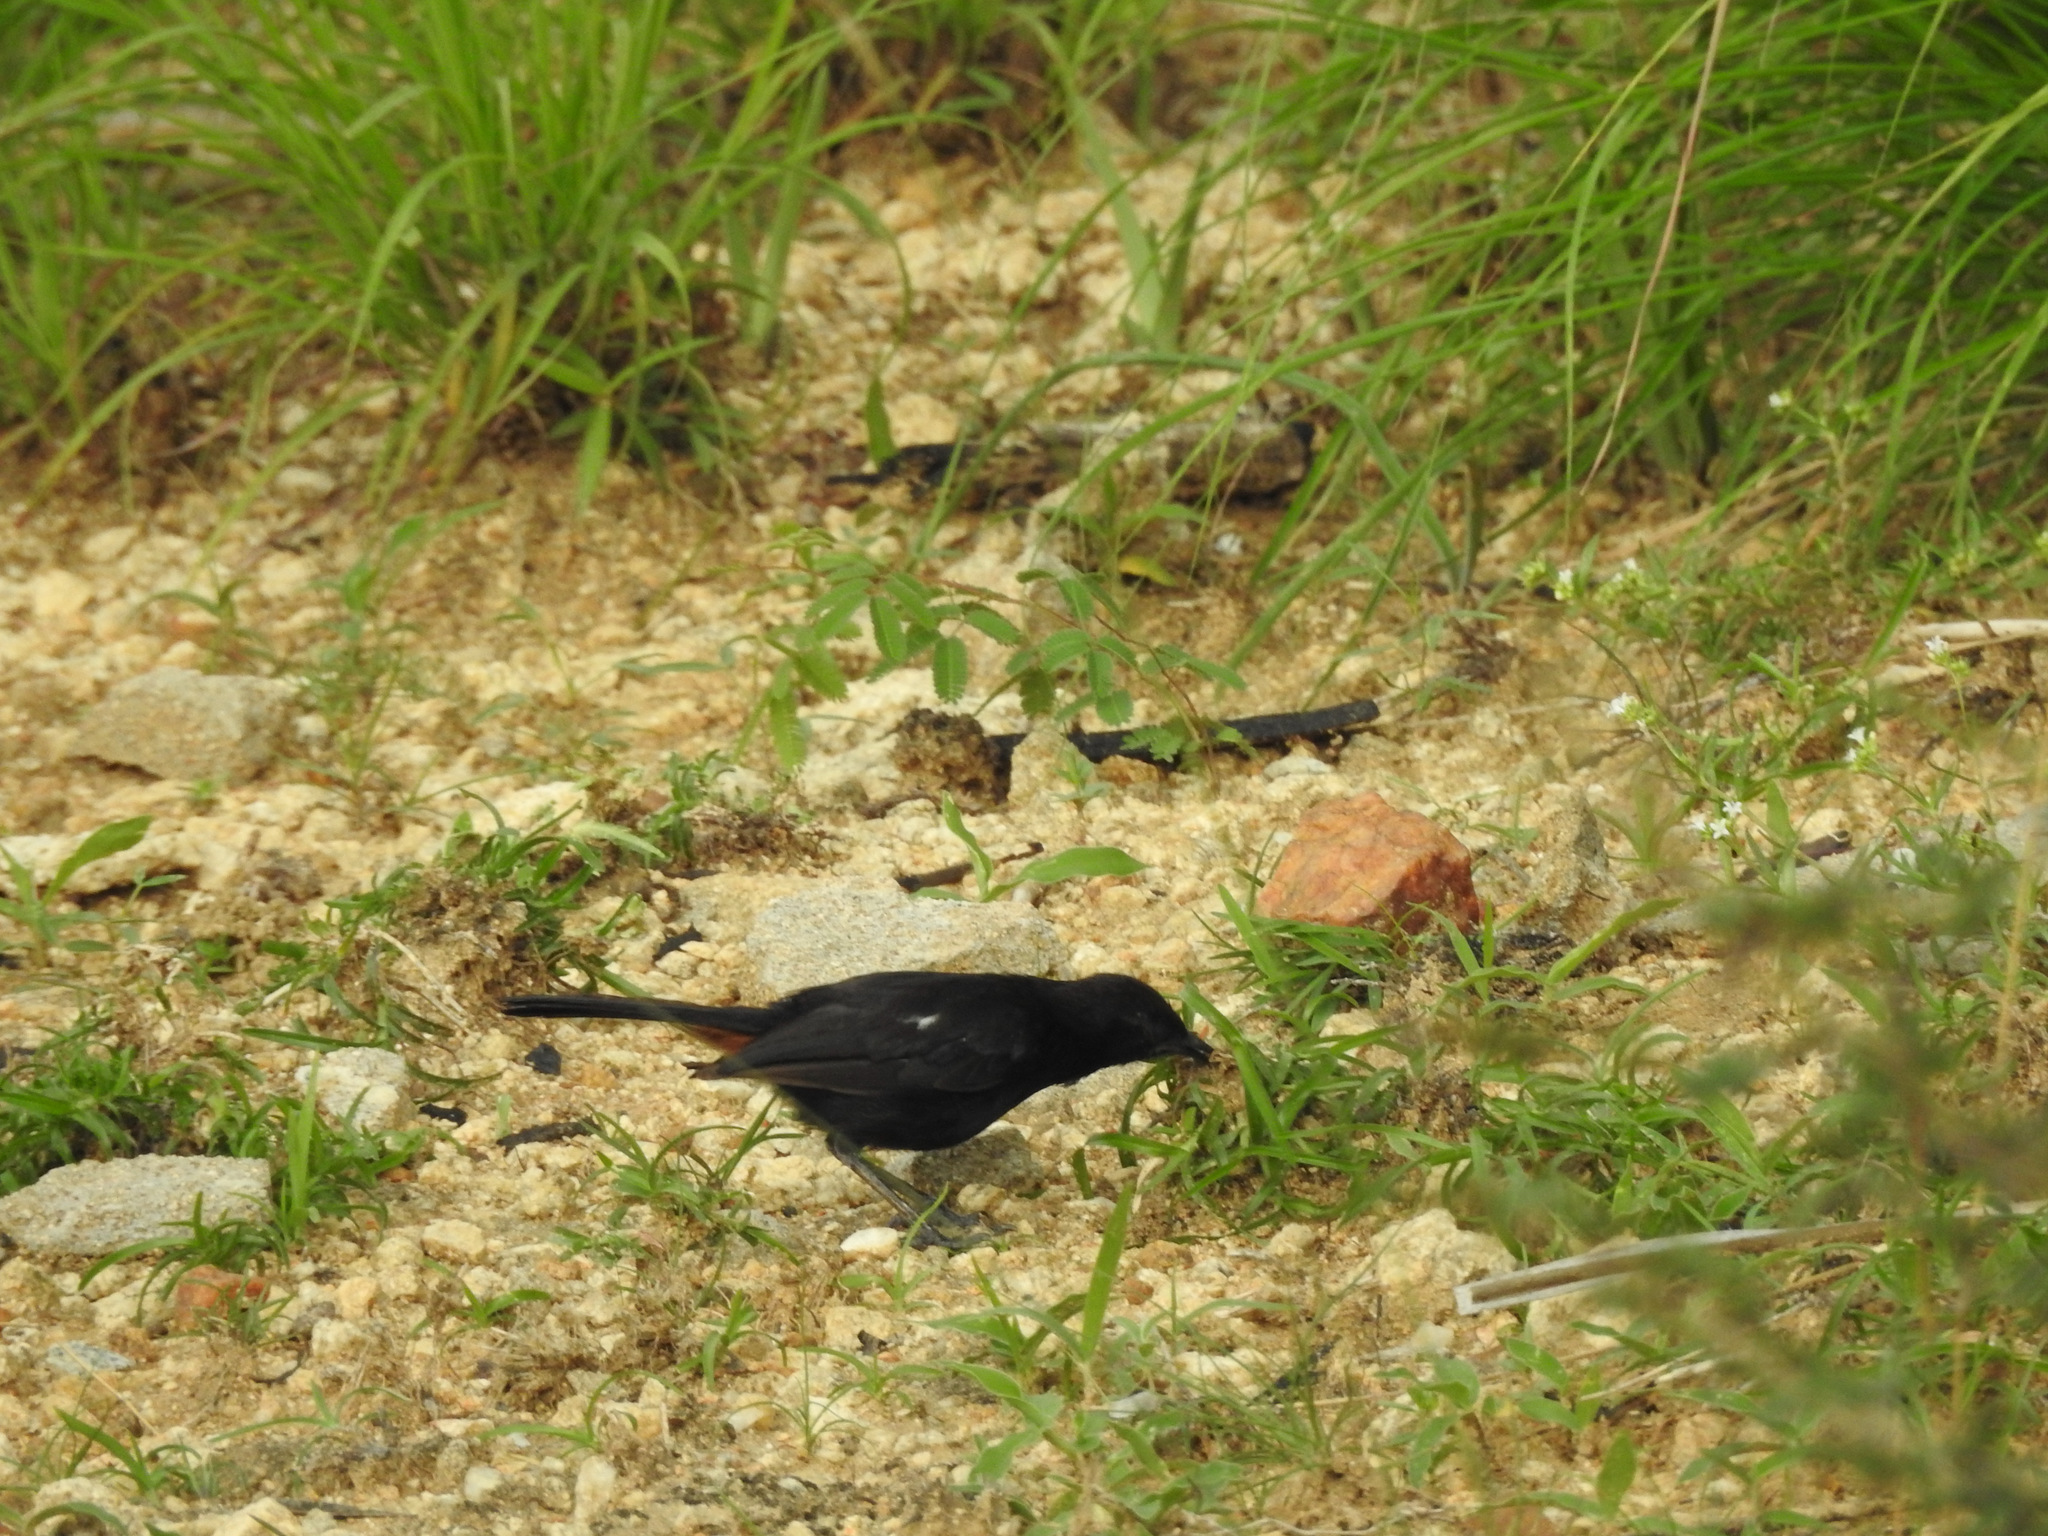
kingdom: Animalia
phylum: Chordata
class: Aves
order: Passeriformes
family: Muscicapidae
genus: Saxicoloides
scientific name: Saxicoloides fulicatus
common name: Indian robin
